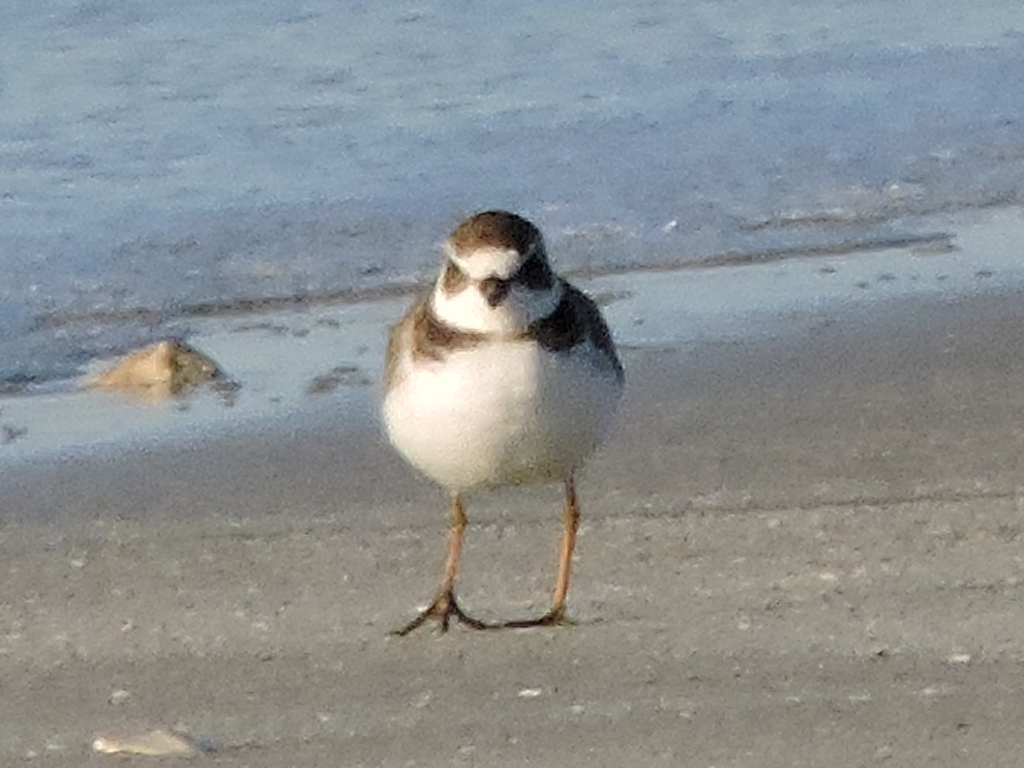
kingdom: Animalia
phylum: Chordata
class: Aves
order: Charadriiformes
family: Charadriidae
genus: Charadrius
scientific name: Charadrius semipalmatus
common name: Semipalmated plover
